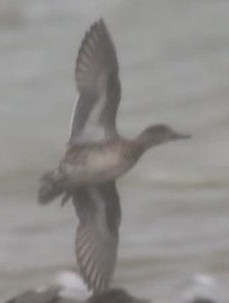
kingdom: Animalia
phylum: Chordata
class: Aves
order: Anseriformes
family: Anatidae
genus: Anas
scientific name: Anas crecca
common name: Eurasian teal
